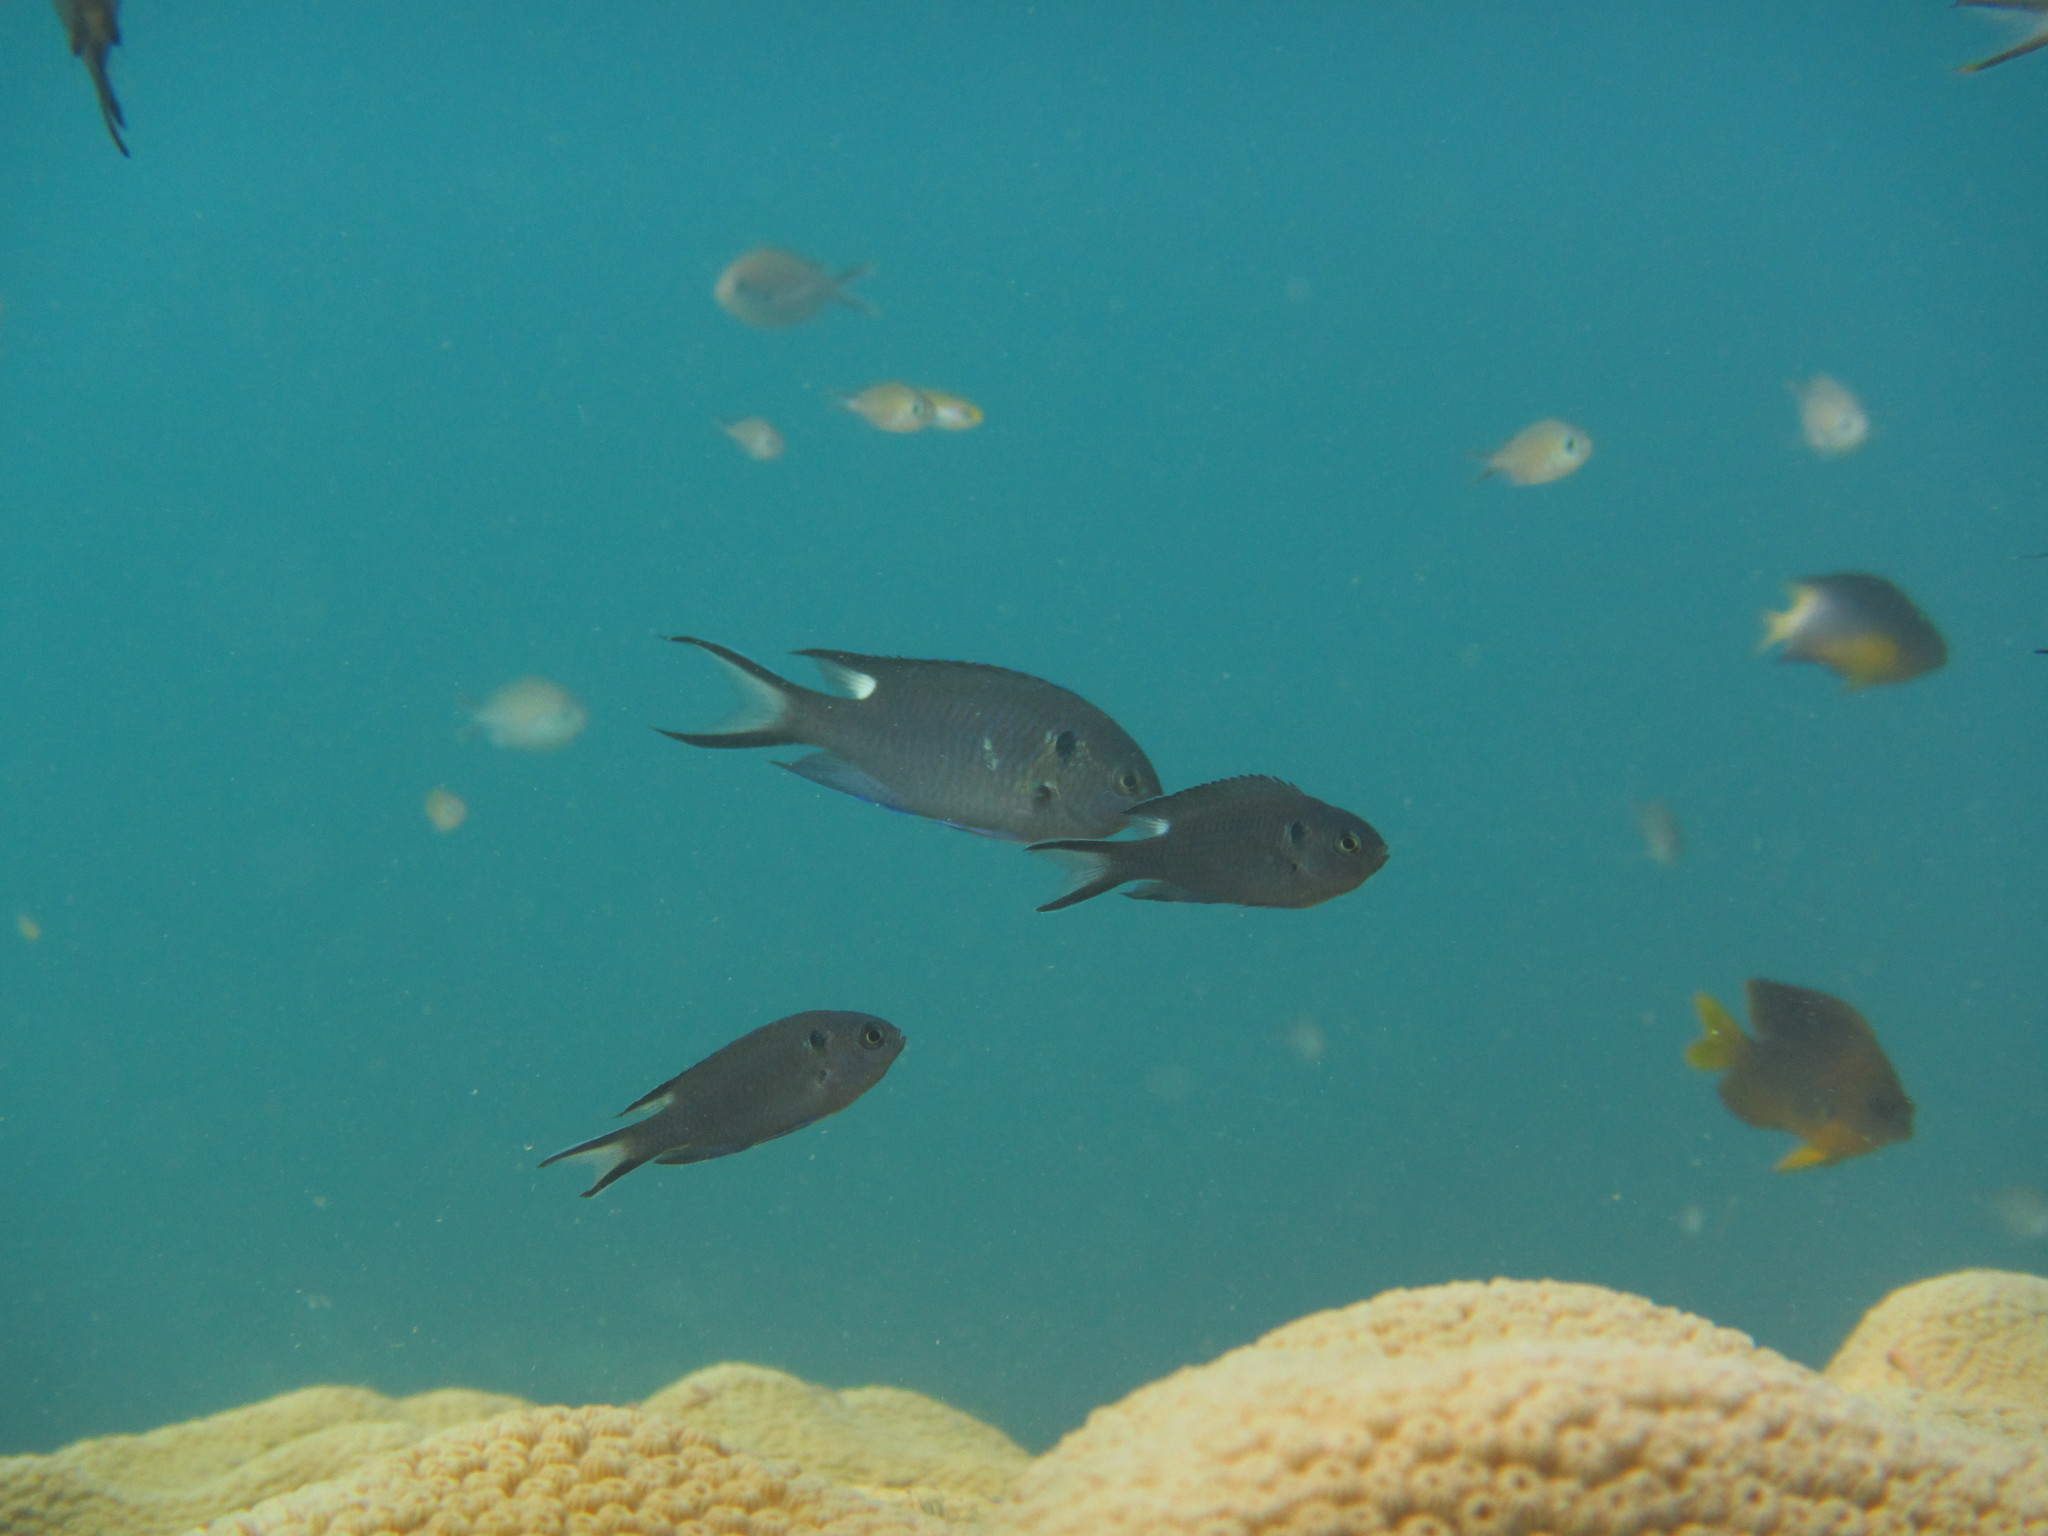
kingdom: Animalia
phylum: Chordata
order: Perciformes
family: Pomacentridae
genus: Neopomacentrus
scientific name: Neopomacentrus cyanomos
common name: Regal demoiselle
